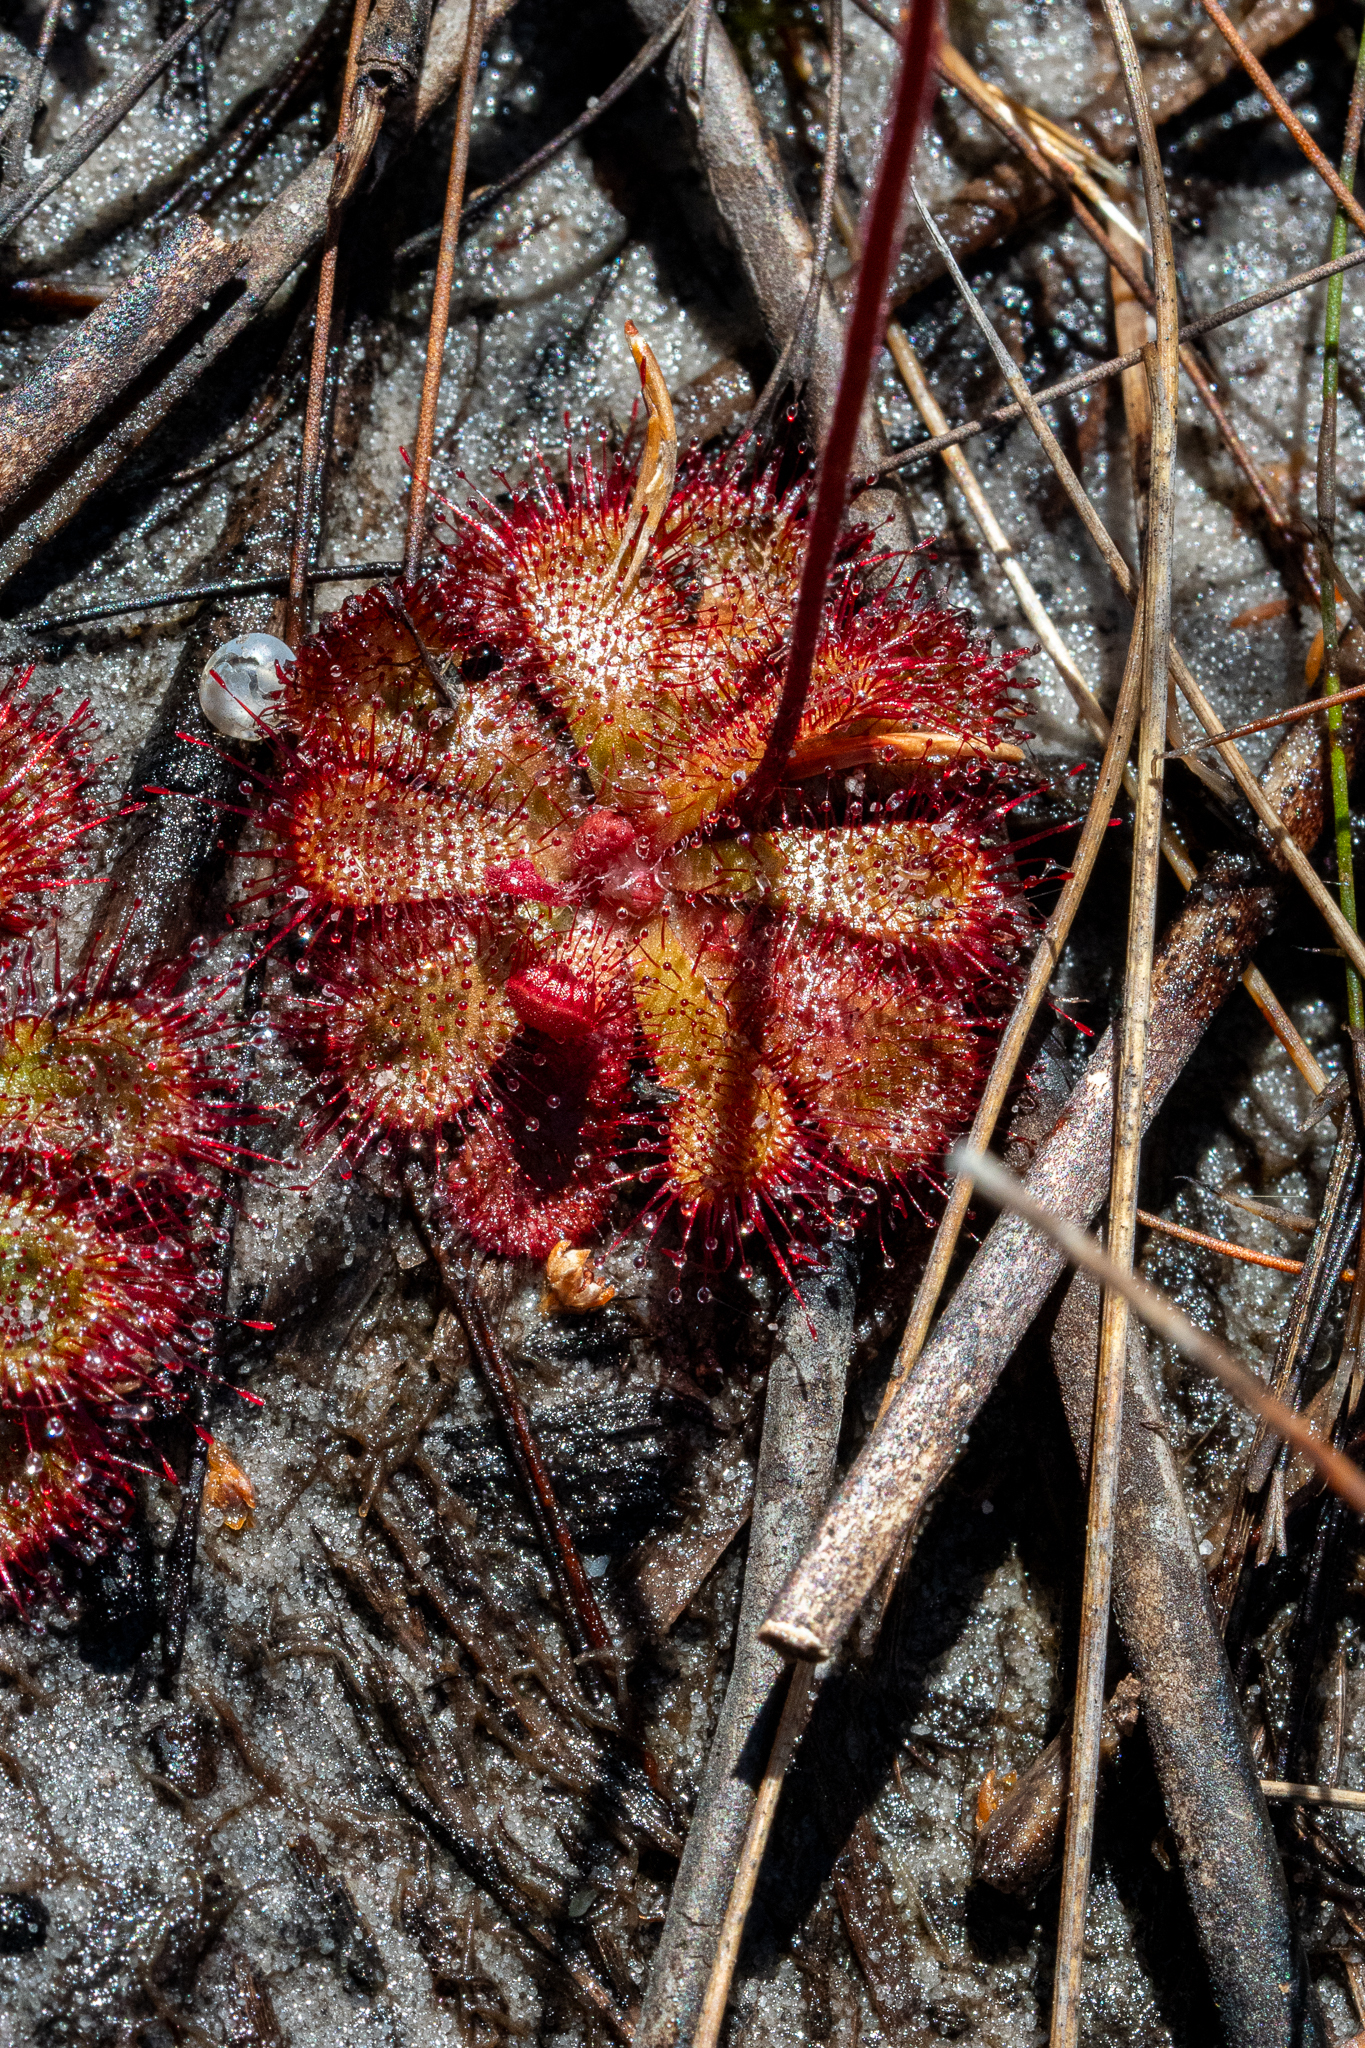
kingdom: Plantae
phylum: Tracheophyta
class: Magnoliopsida
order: Caryophyllales
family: Droseraceae
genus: Drosera
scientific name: Drosera cuneifolia
